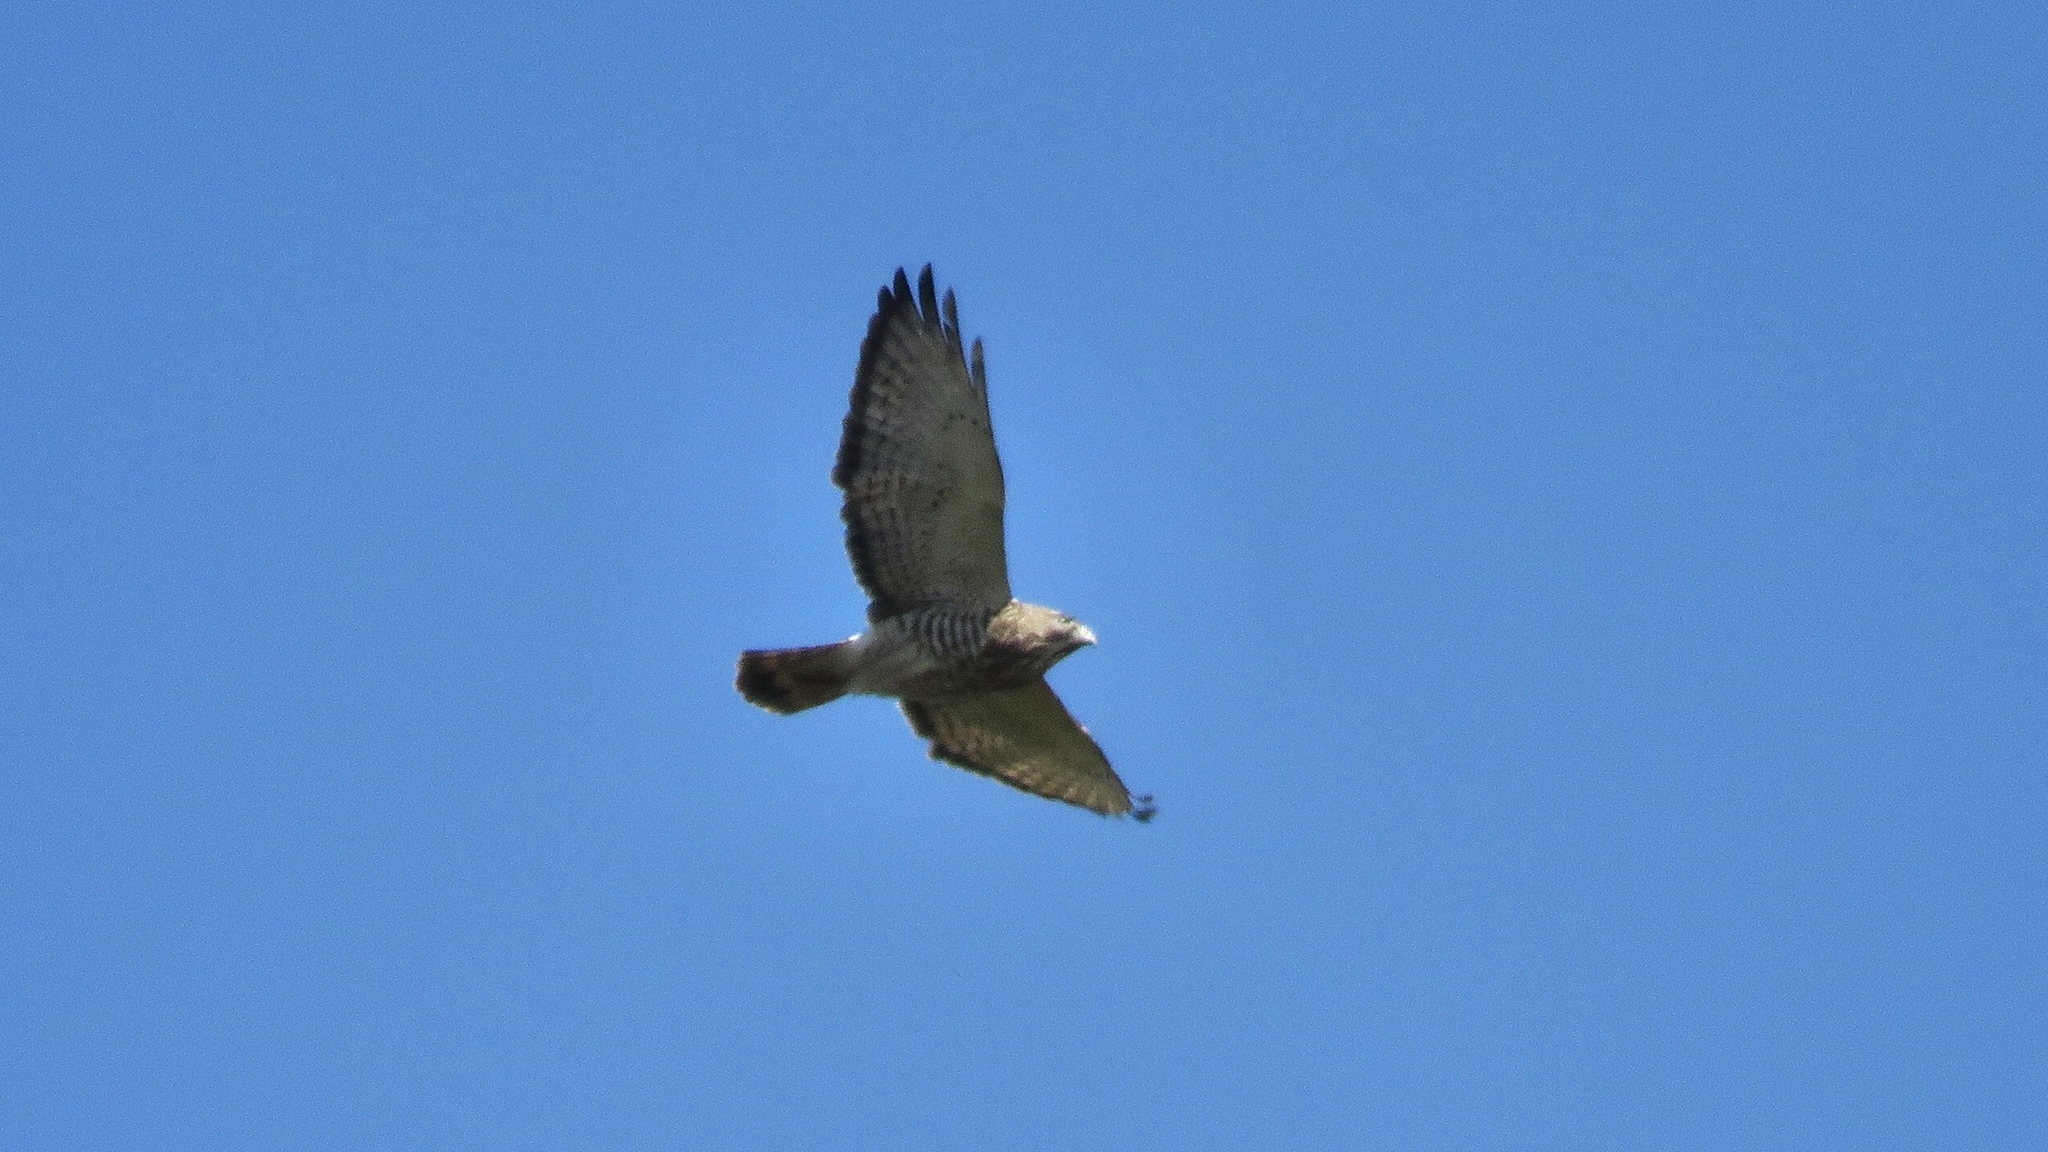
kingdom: Animalia
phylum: Chordata
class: Aves
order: Accipitriformes
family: Accipitridae
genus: Buteo
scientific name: Buteo platypterus
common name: Broad-winged hawk
